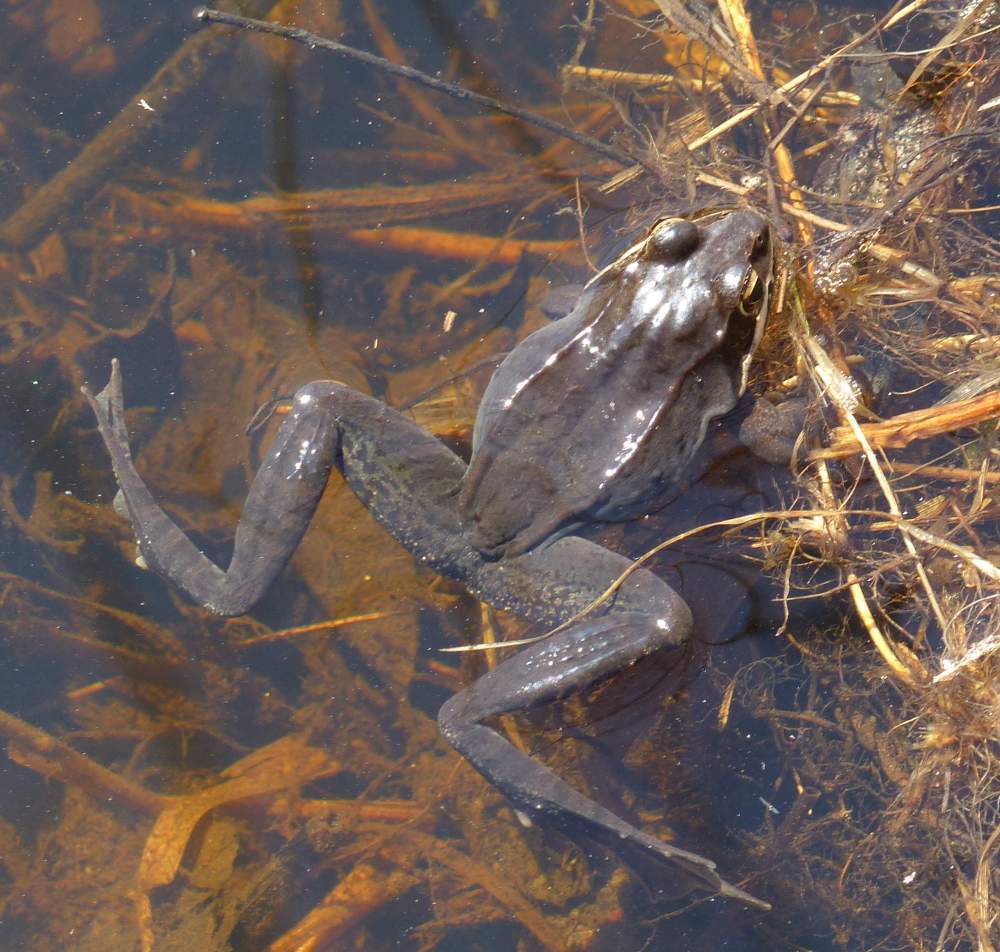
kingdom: Animalia
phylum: Chordata
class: Amphibia
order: Anura
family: Ranidae
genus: Lithobates
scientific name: Lithobates sylvaticus
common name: Wood frog
